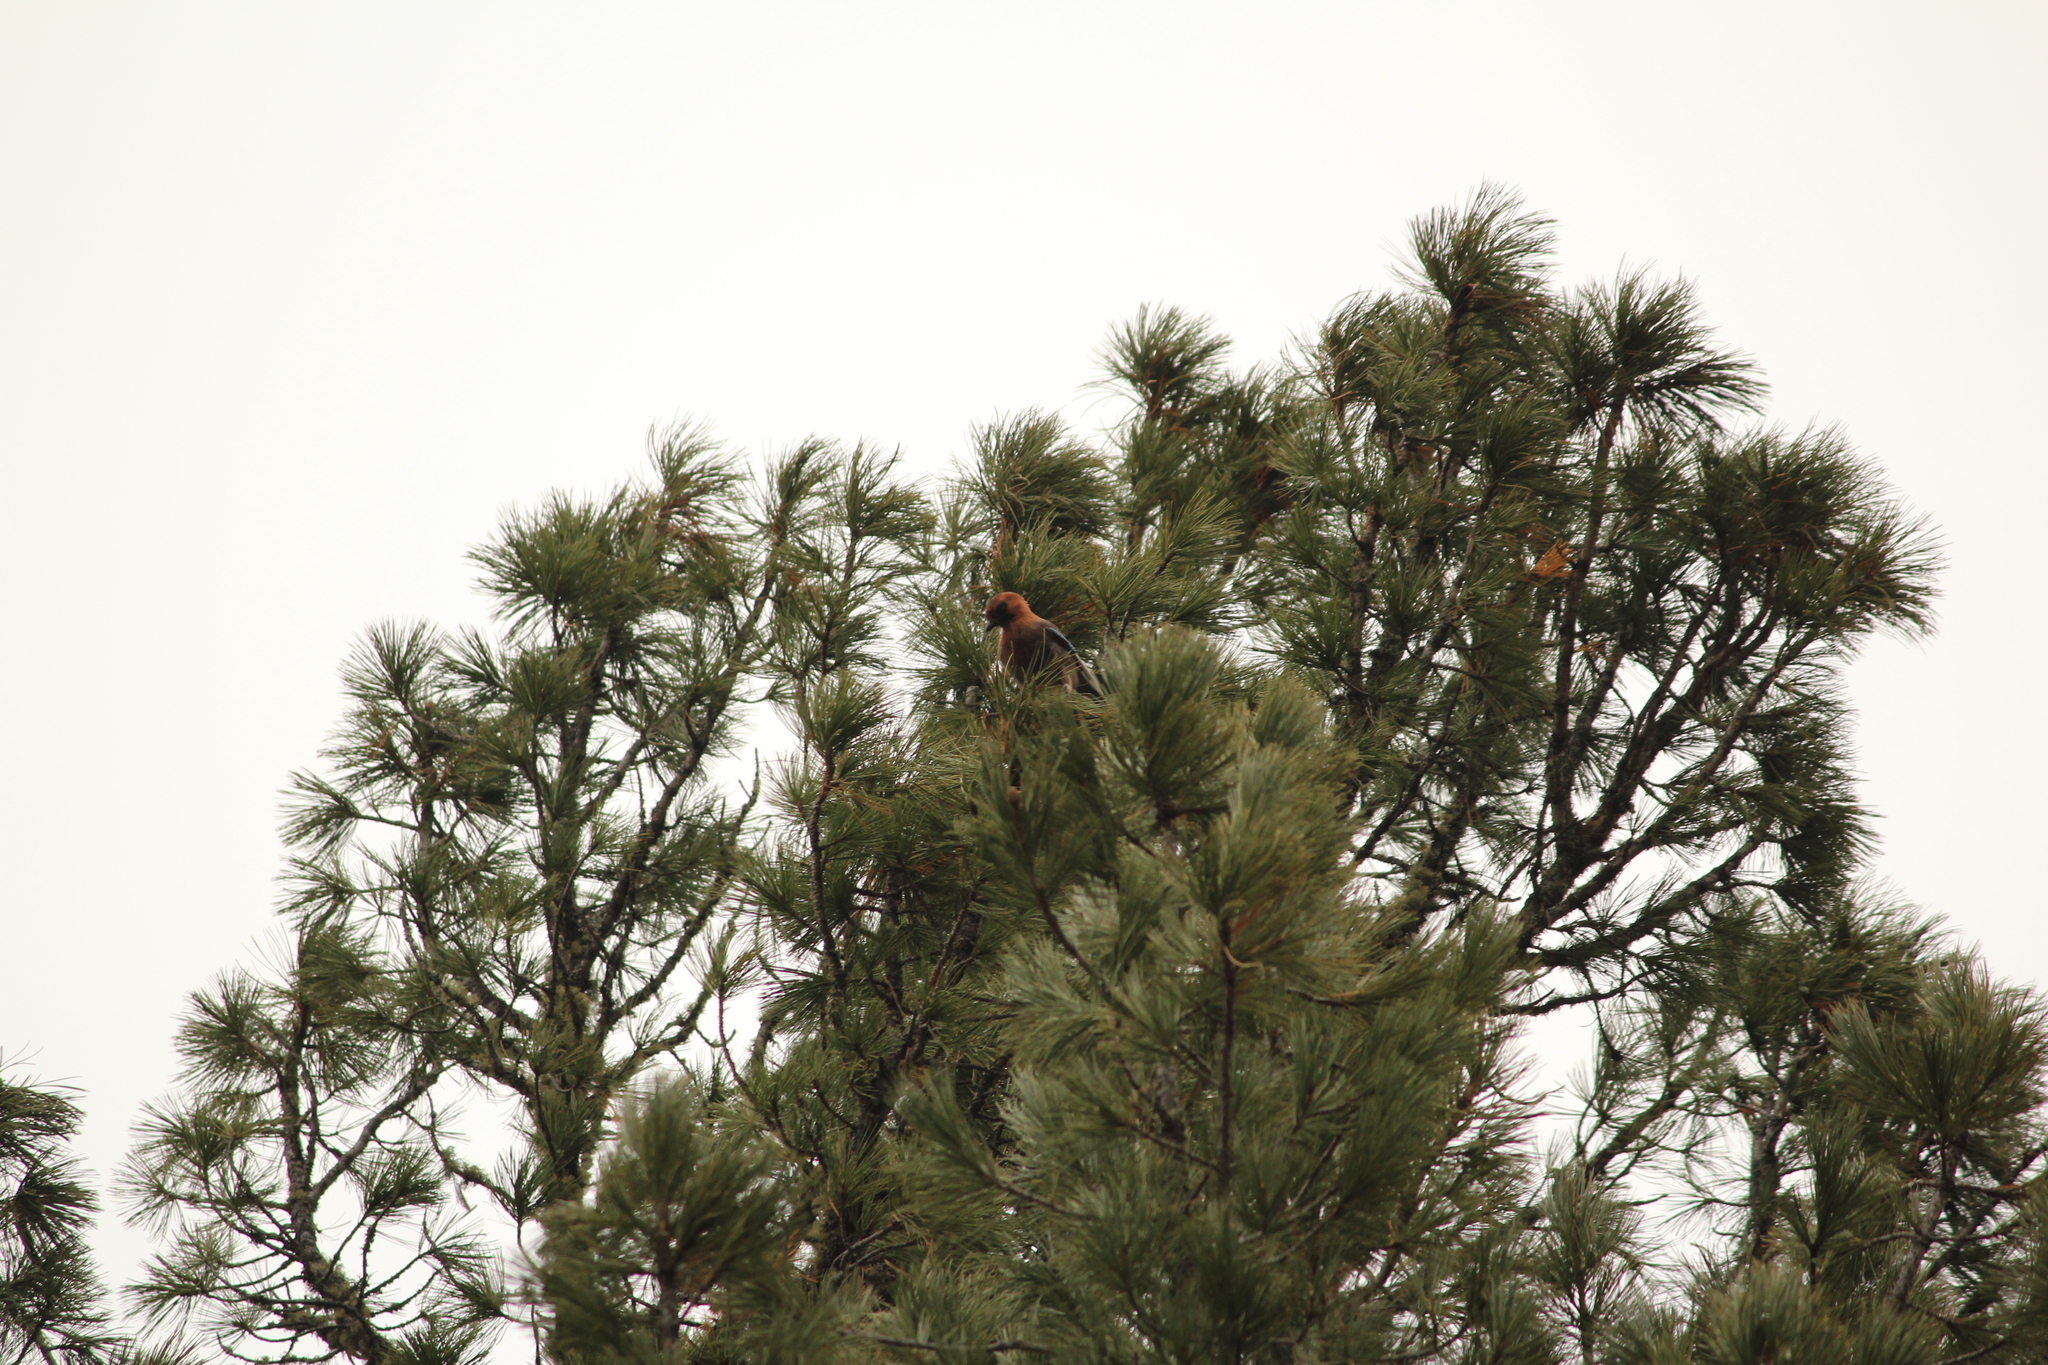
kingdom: Animalia
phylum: Chordata
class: Aves
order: Passeriformes
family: Corvidae
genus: Garrulus
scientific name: Garrulus glandarius
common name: Eurasian jay
